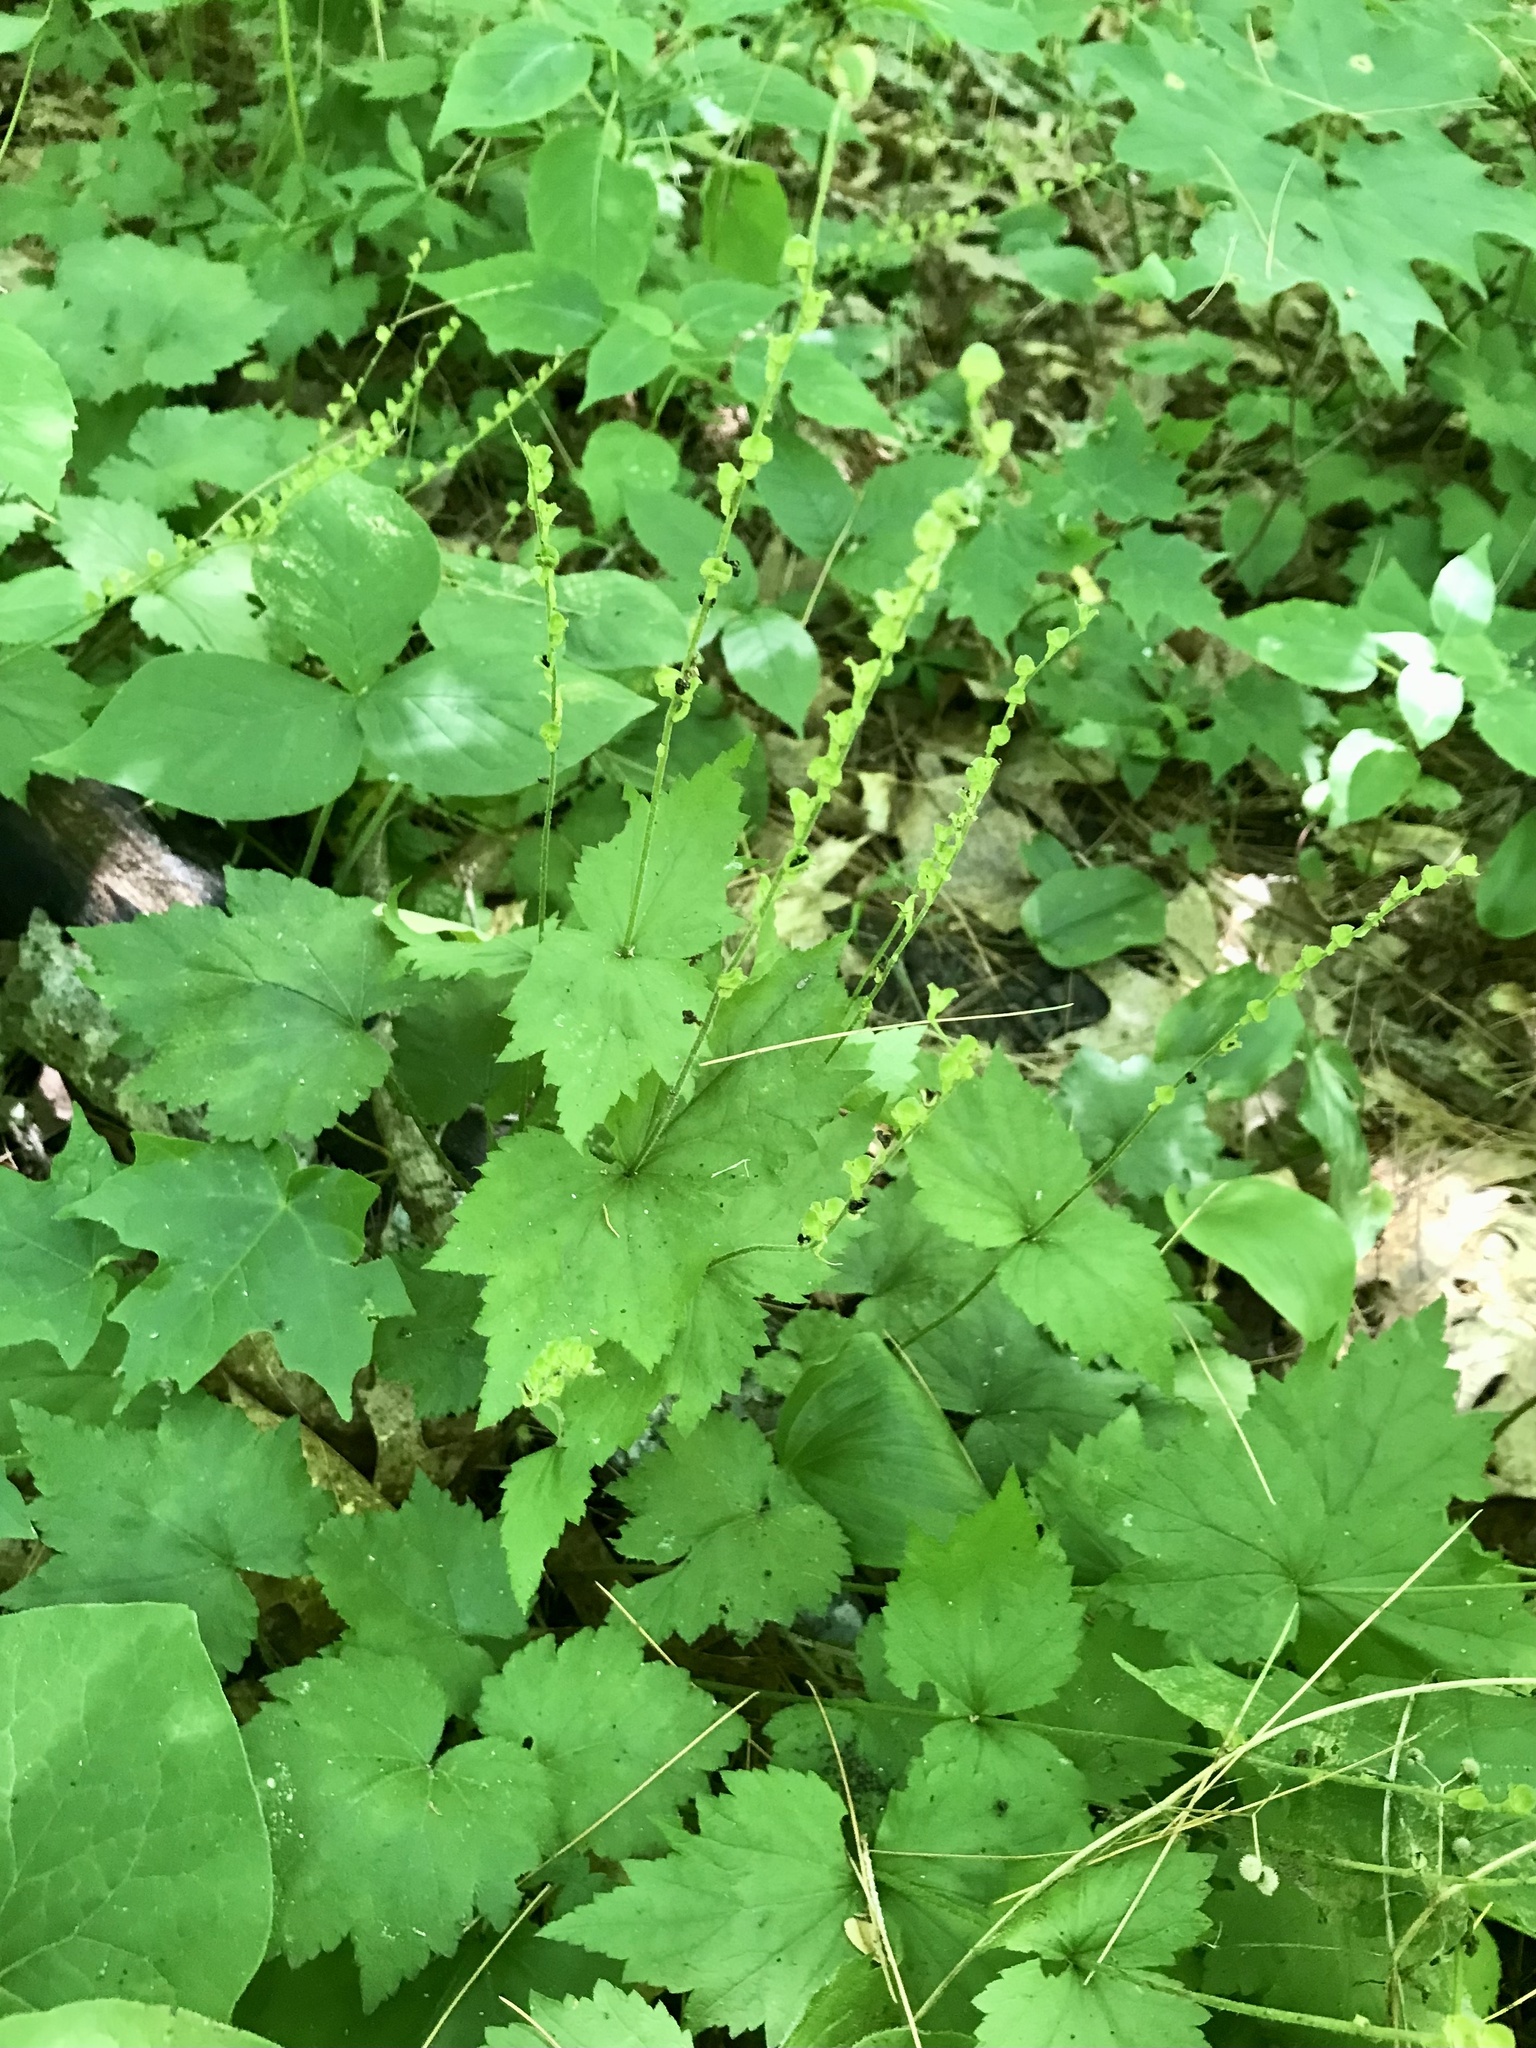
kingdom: Plantae
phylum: Tracheophyta
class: Magnoliopsida
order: Saxifragales
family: Saxifragaceae
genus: Mitella
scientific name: Mitella diphylla
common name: Coolwort
